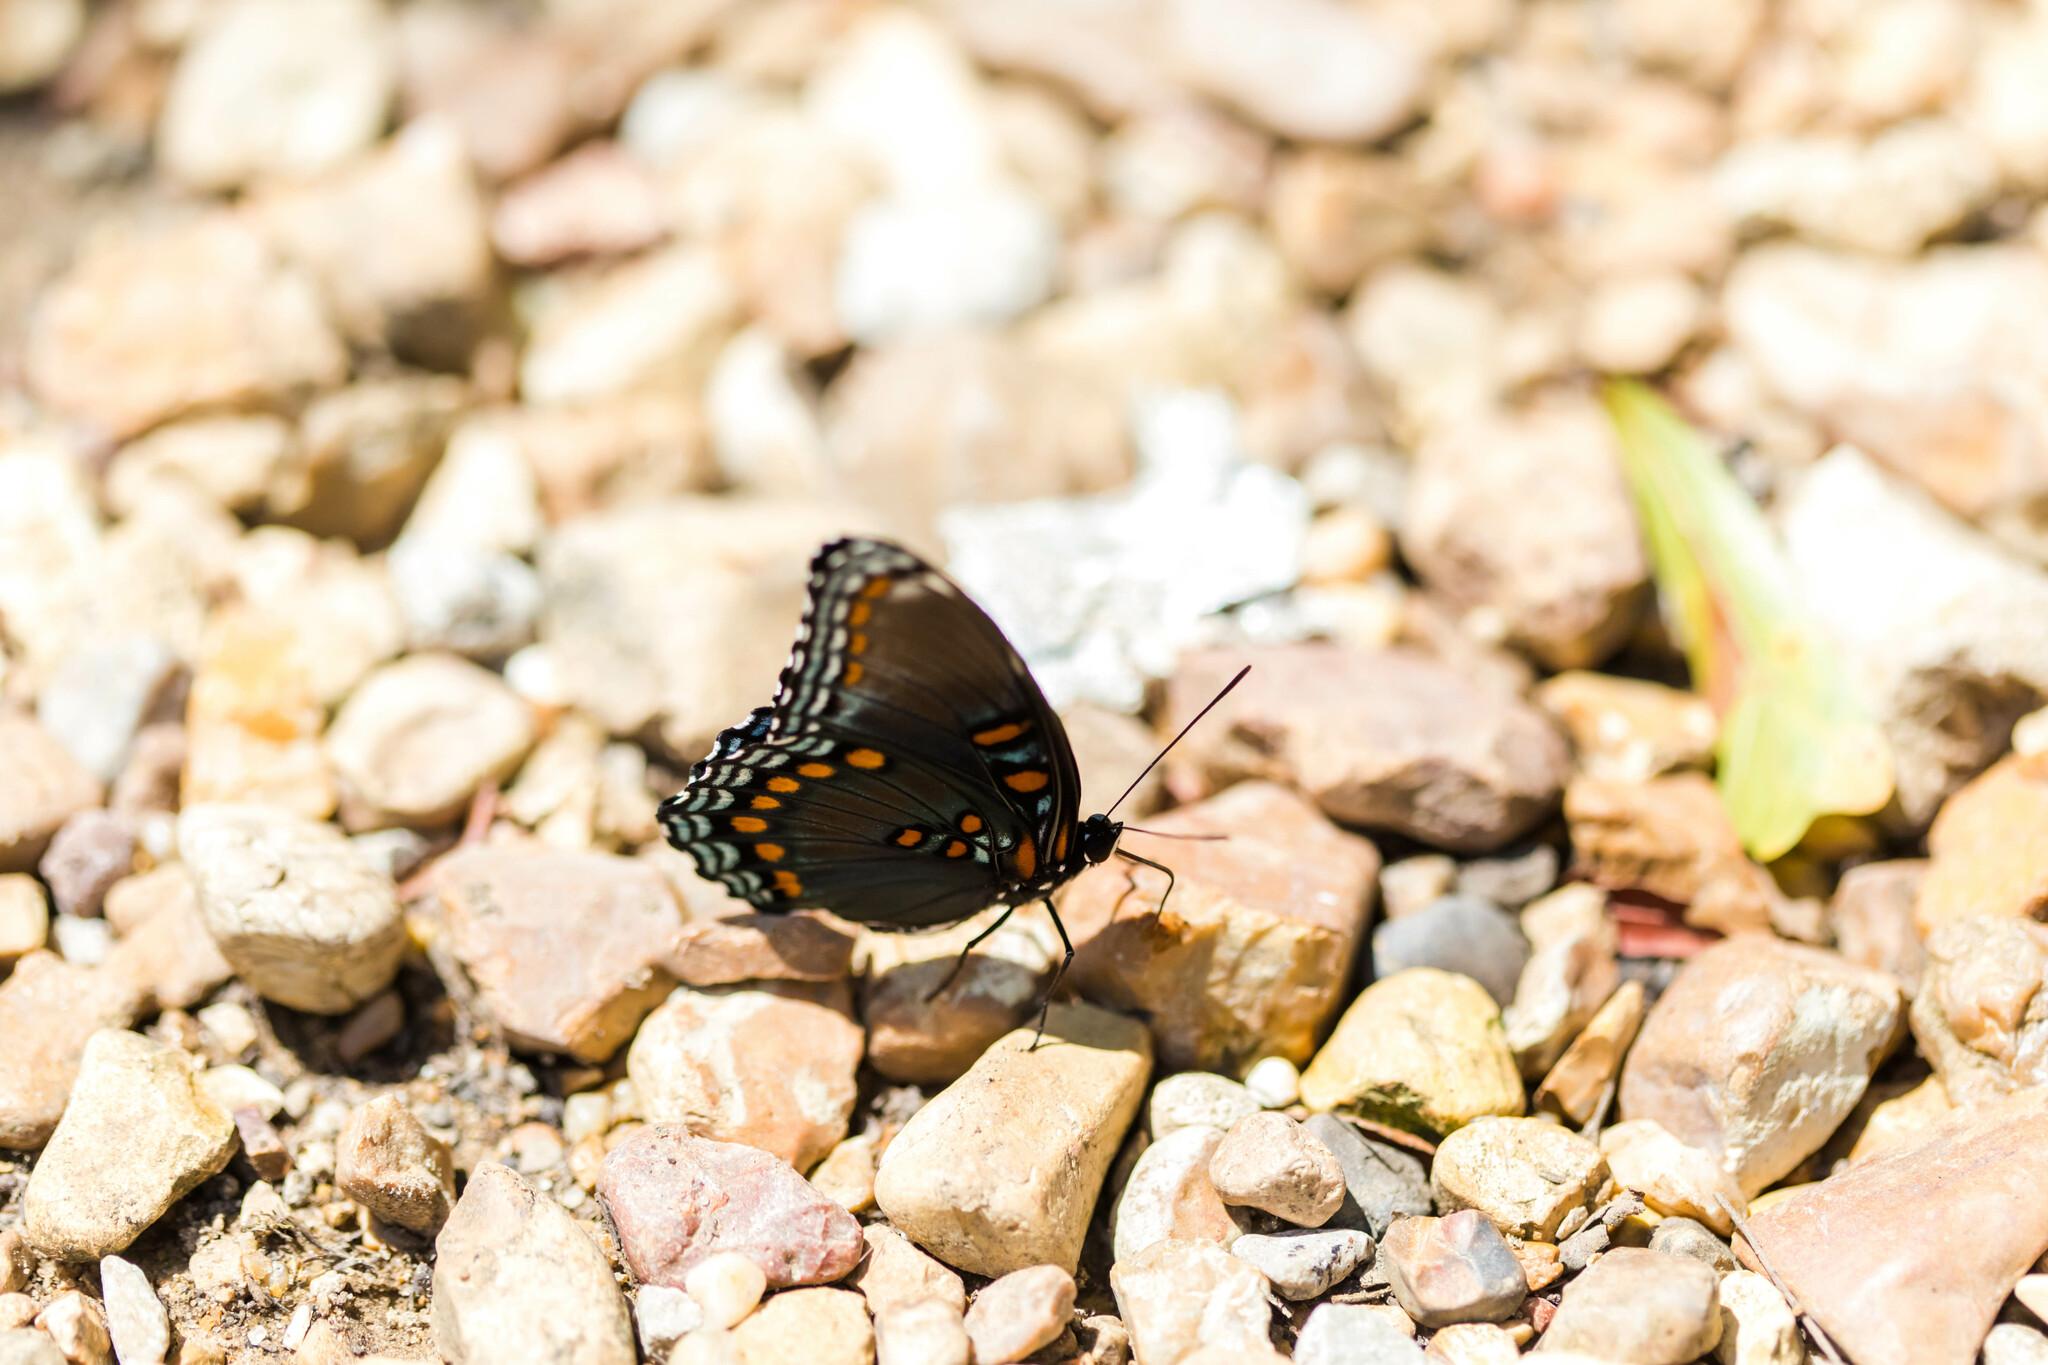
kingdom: Animalia
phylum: Arthropoda
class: Insecta
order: Lepidoptera
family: Nymphalidae
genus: Limenitis
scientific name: Limenitis astyanax
